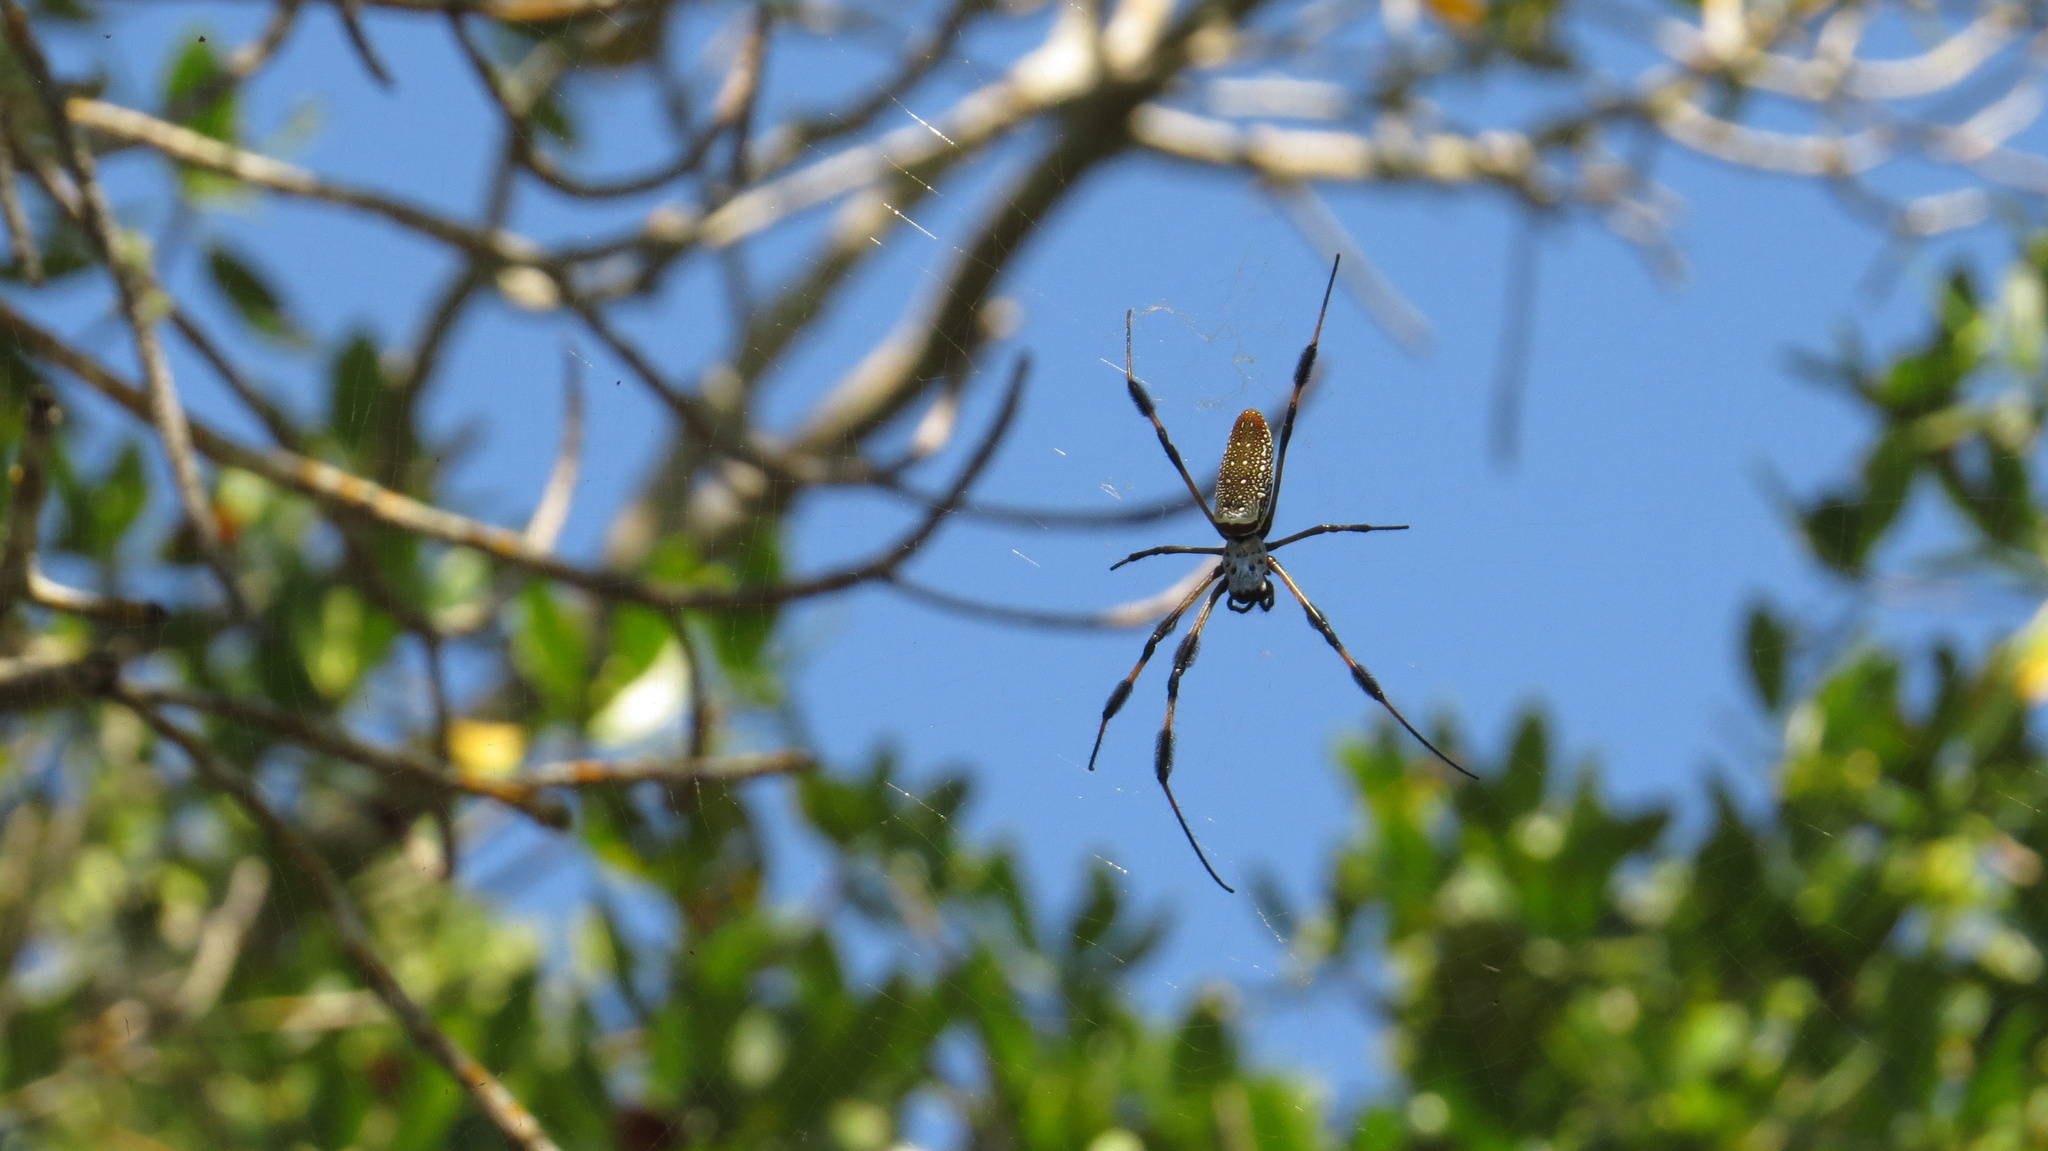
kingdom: Animalia
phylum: Arthropoda
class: Arachnida
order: Araneae
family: Araneidae
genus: Trichonephila
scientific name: Trichonephila clavipes
